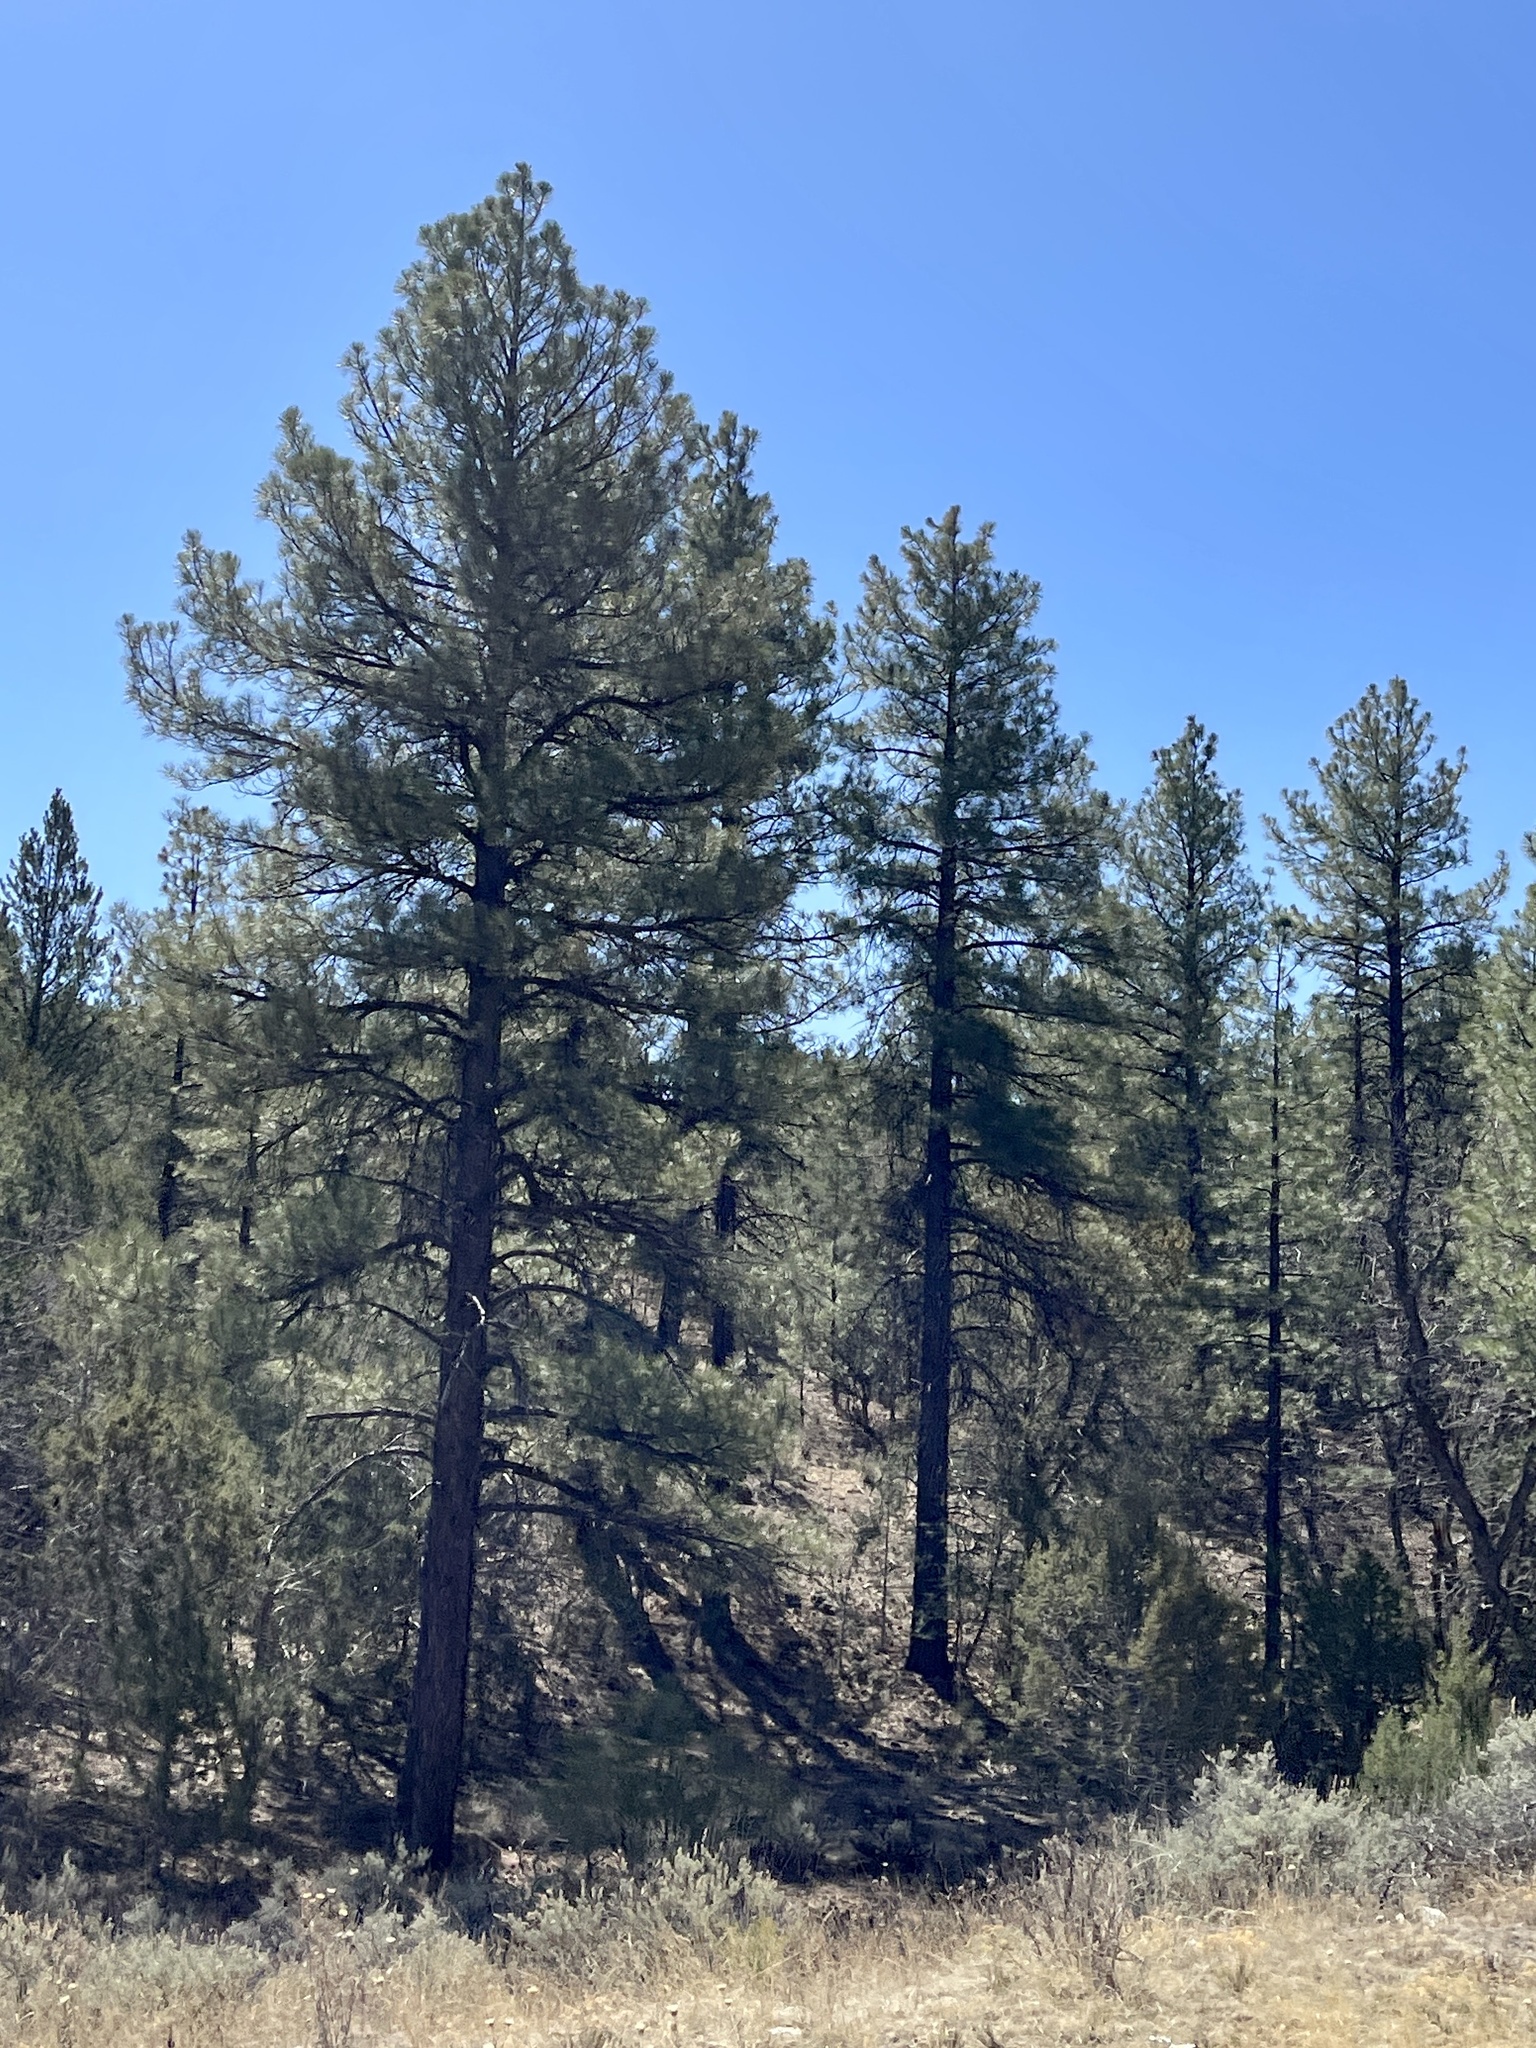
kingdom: Plantae
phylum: Tracheophyta
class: Pinopsida
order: Pinales
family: Pinaceae
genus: Pinus
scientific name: Pinus ponderosa
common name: Western yellow-pine
